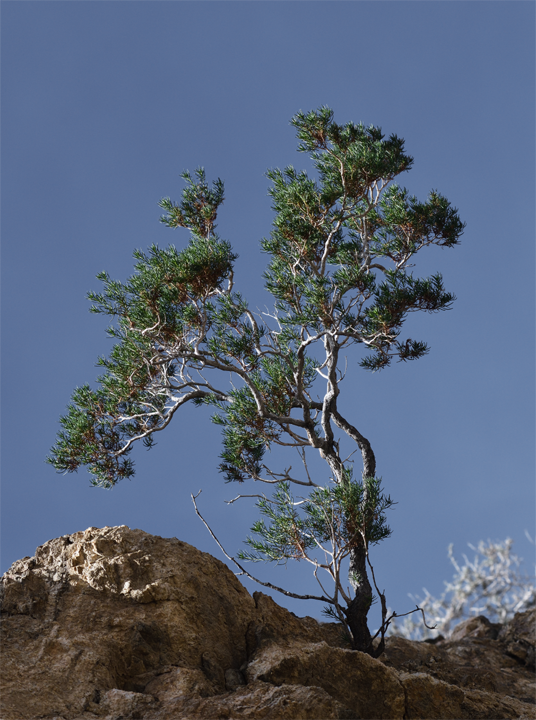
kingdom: Plantae
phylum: Tracheophyta
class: Magnoliopsida
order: Asterales
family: Asteraceae
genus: Peucephyllum
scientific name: Peucephyllum schottii
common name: Pygmy-cedar
